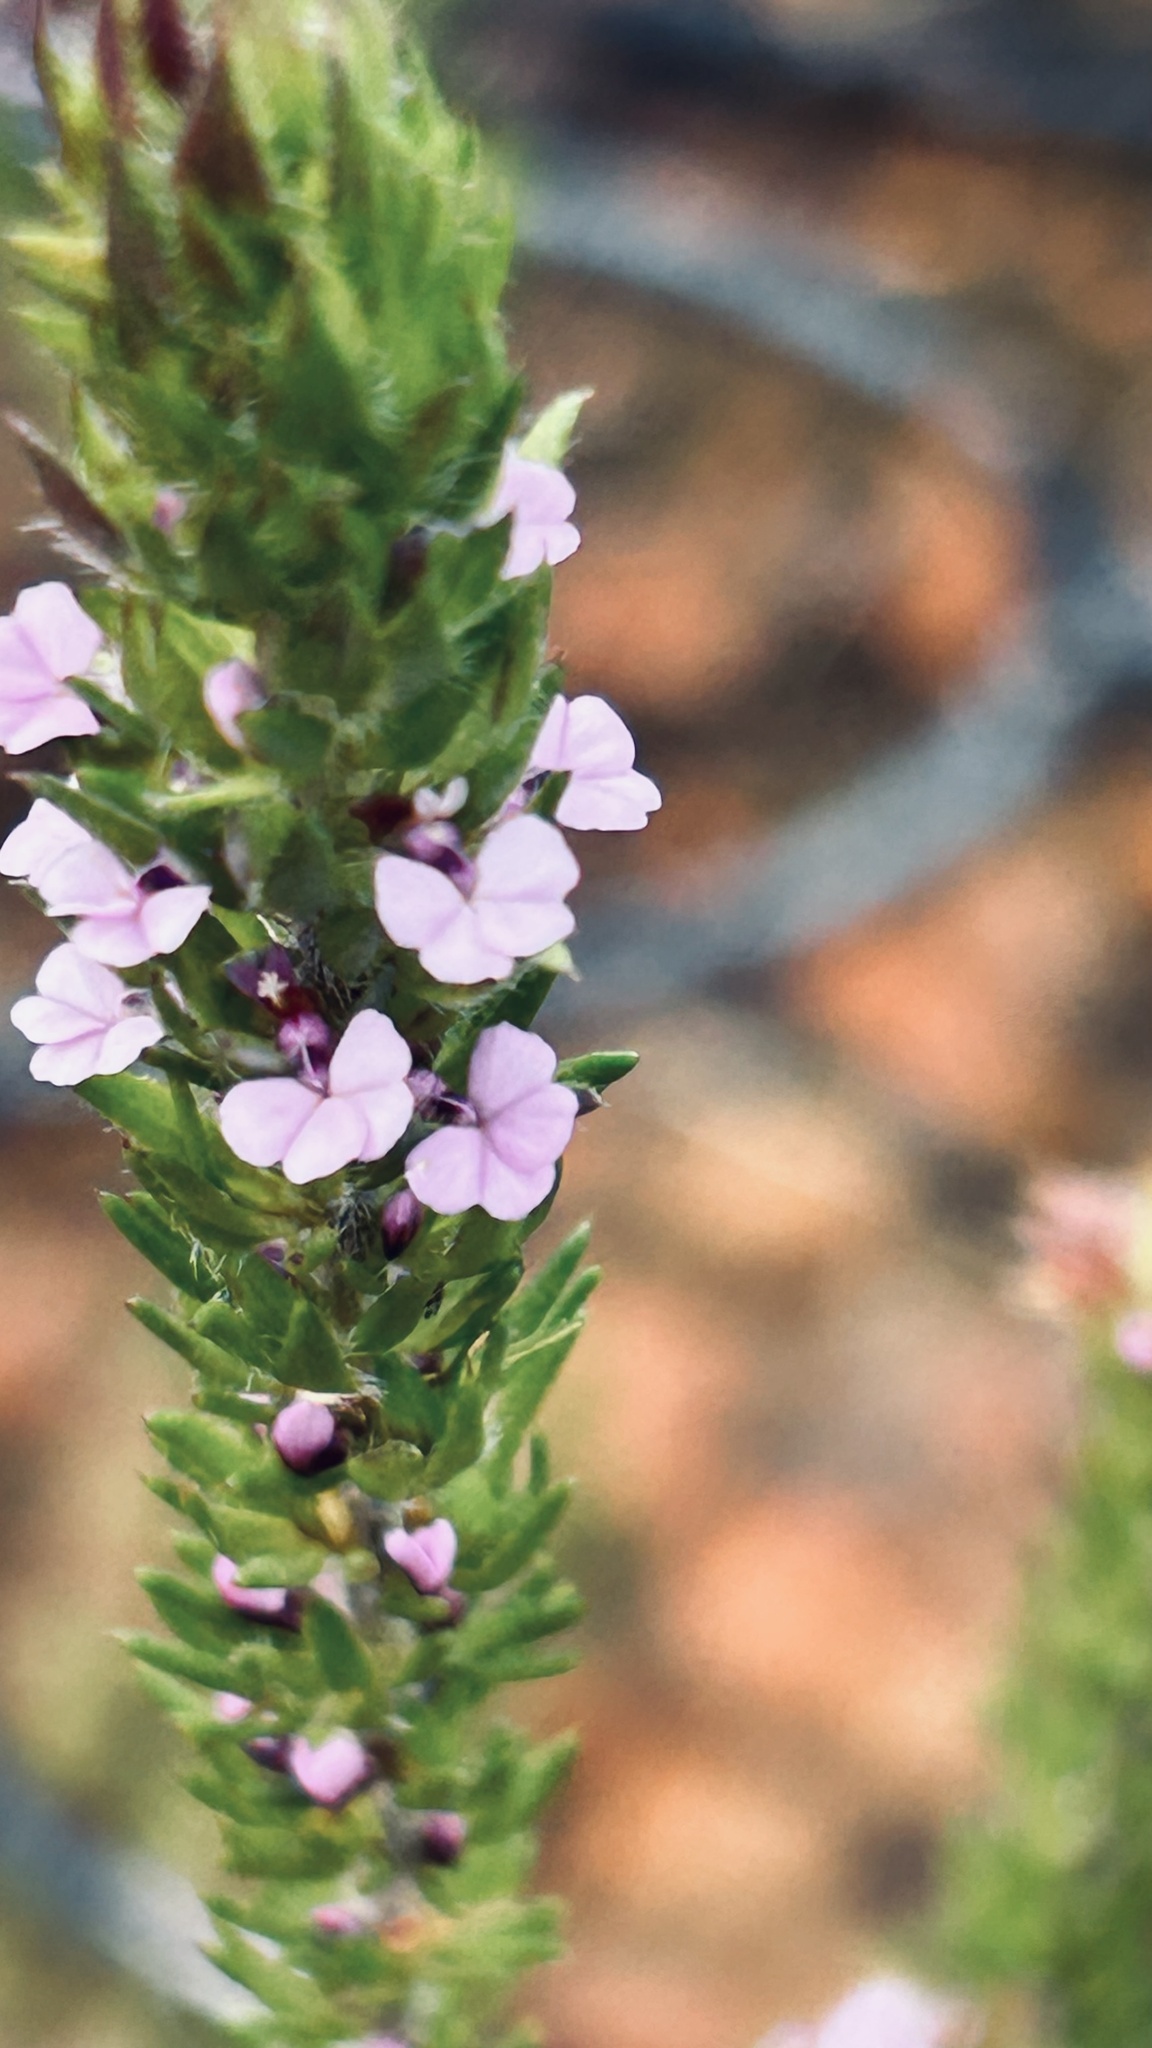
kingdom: Plantae
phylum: Tracheophyta
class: Magnoliopsida
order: Fabales
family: Polygalaceae
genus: Muraltia
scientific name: Muraltia alopecuroides
